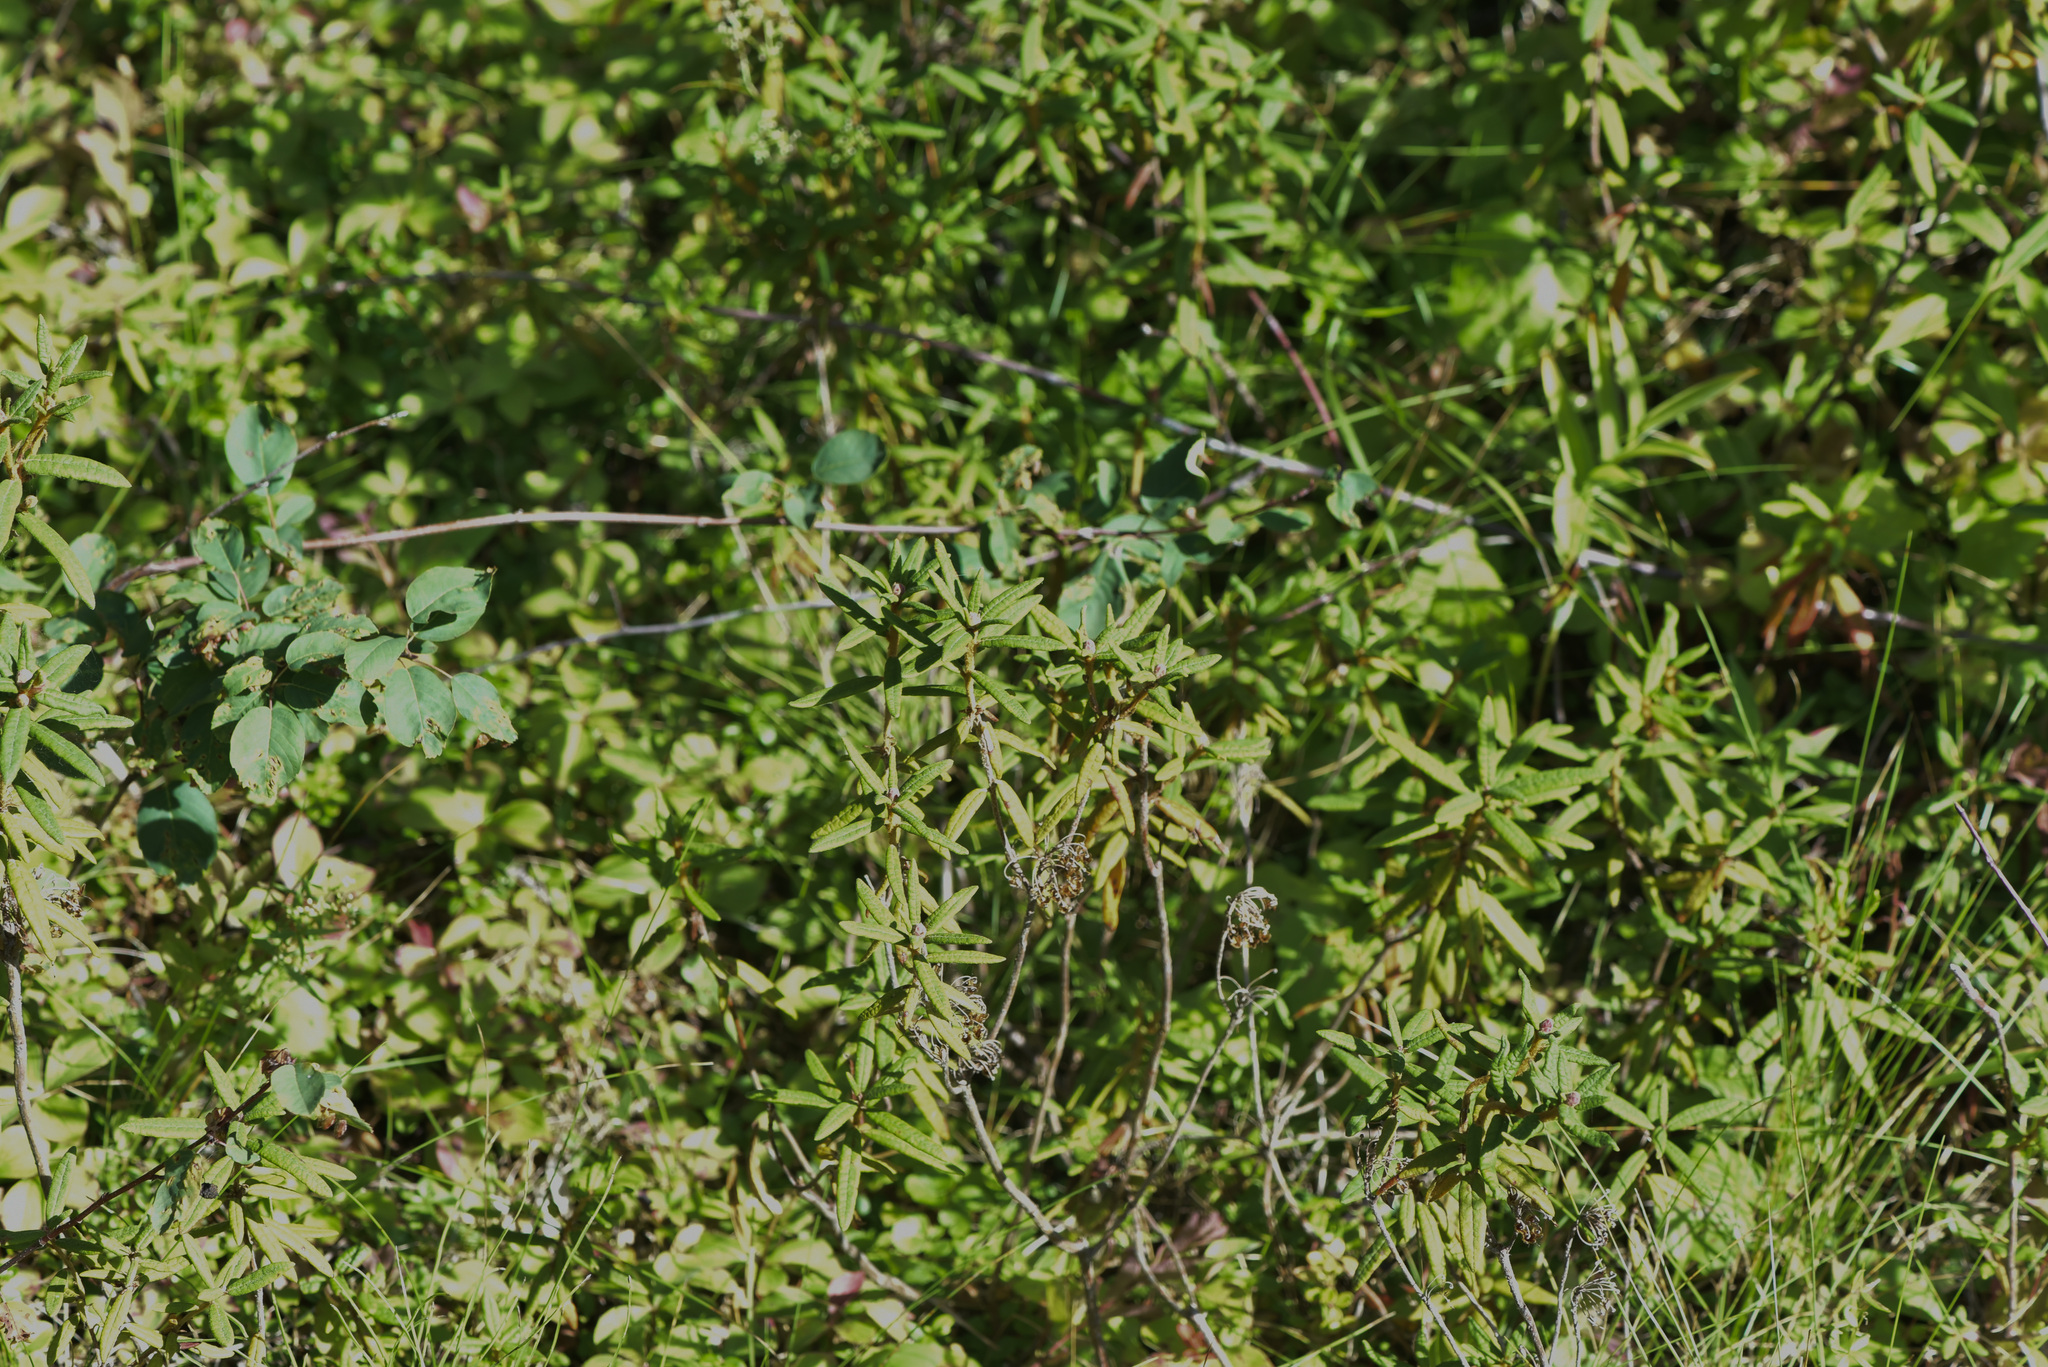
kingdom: Plantae
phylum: Tracheophyta
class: Magnoliopsida
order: Ericales
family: Ericaceae
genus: Rhododendron
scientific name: Rhododendron groenlandicum
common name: Bog labrador tea
